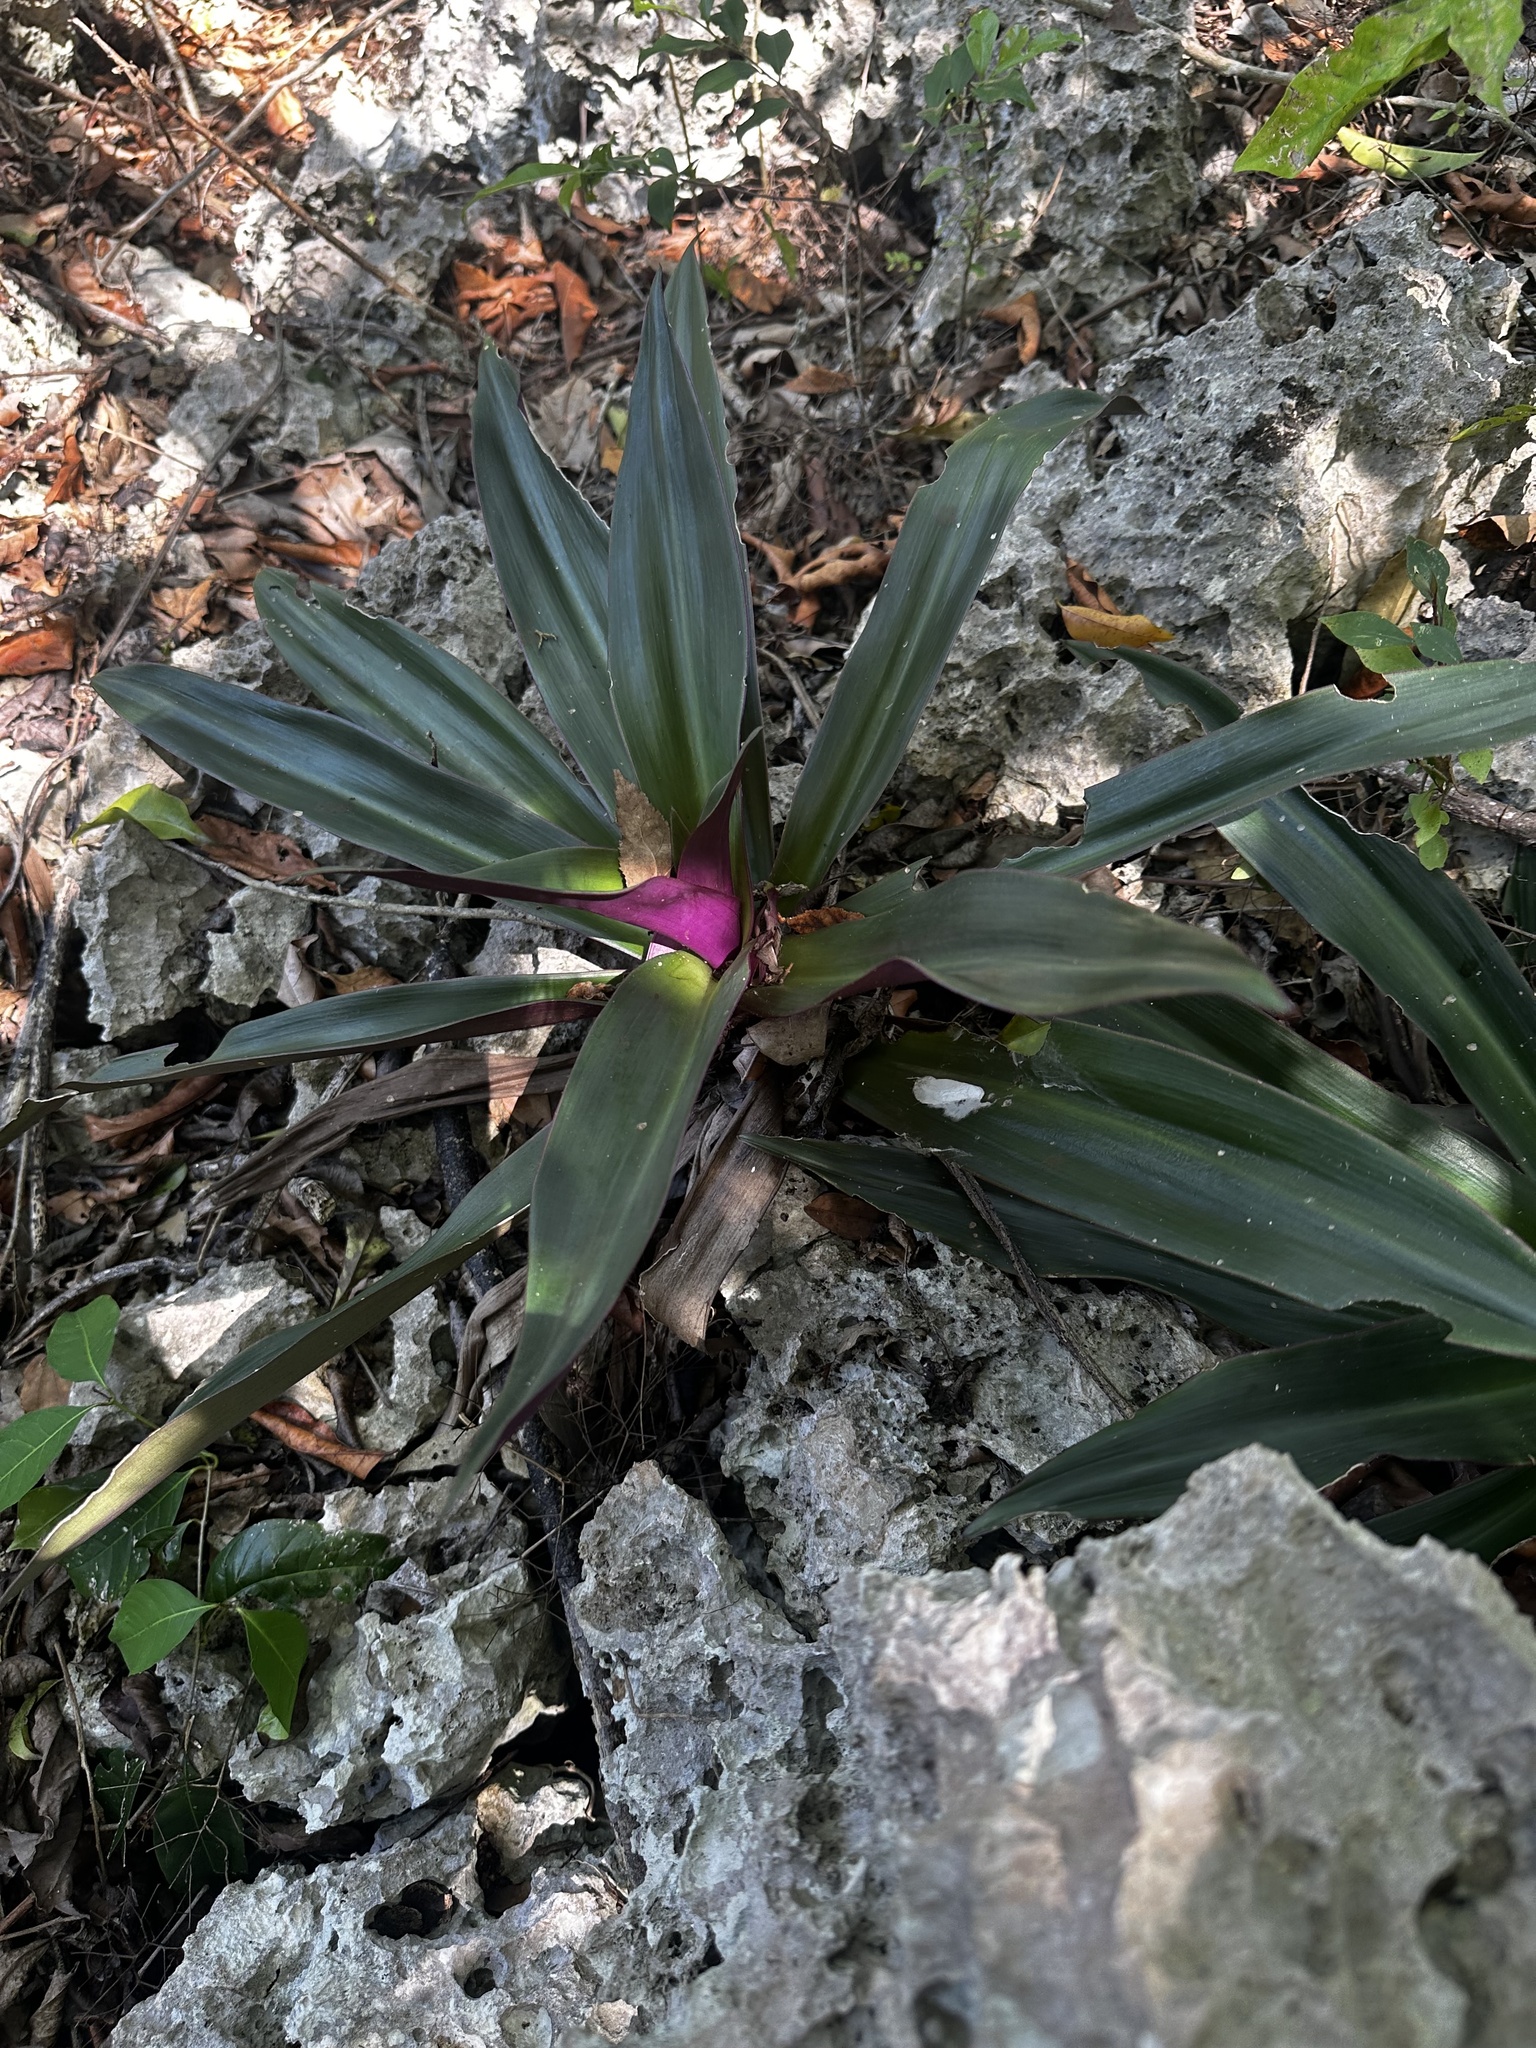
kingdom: Plantae
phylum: Tracheophyta
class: Liliopsida
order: Commelinales
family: Commelinaceae
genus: Tradescantia
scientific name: Tradescantia spathacea
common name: Boatlily
